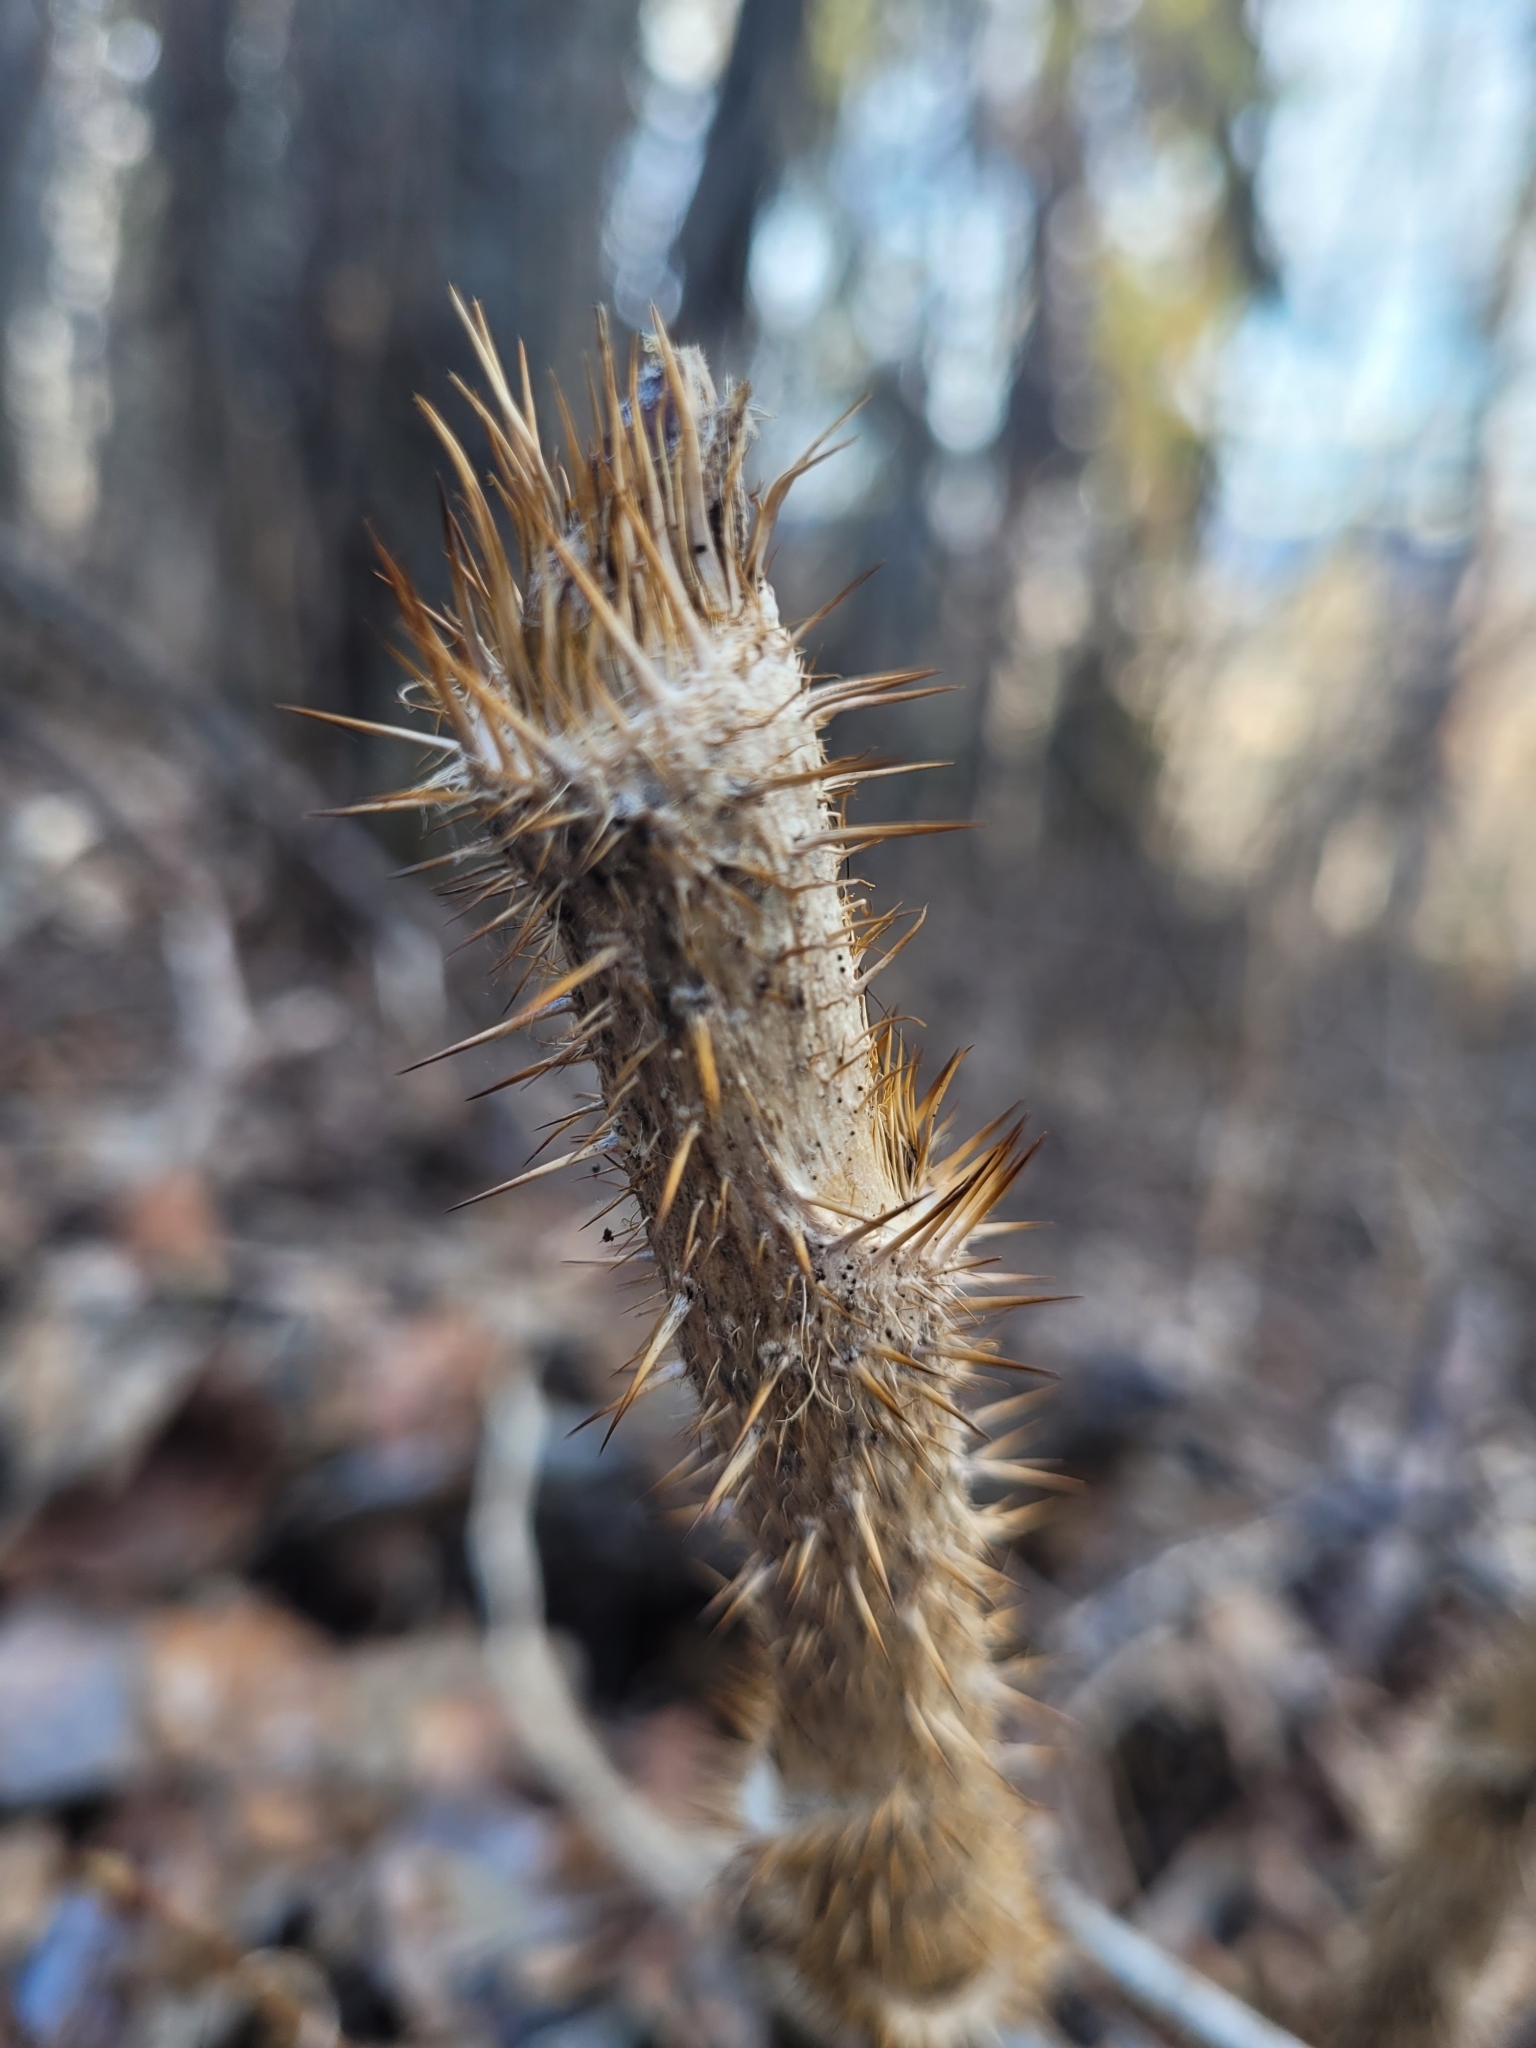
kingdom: Plantae
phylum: Tracheophyta
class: Magnoliopsida
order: Apiales
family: Araliaceae
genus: Oplopanax
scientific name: Oplopanax horridus
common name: Devil's walking-stick
